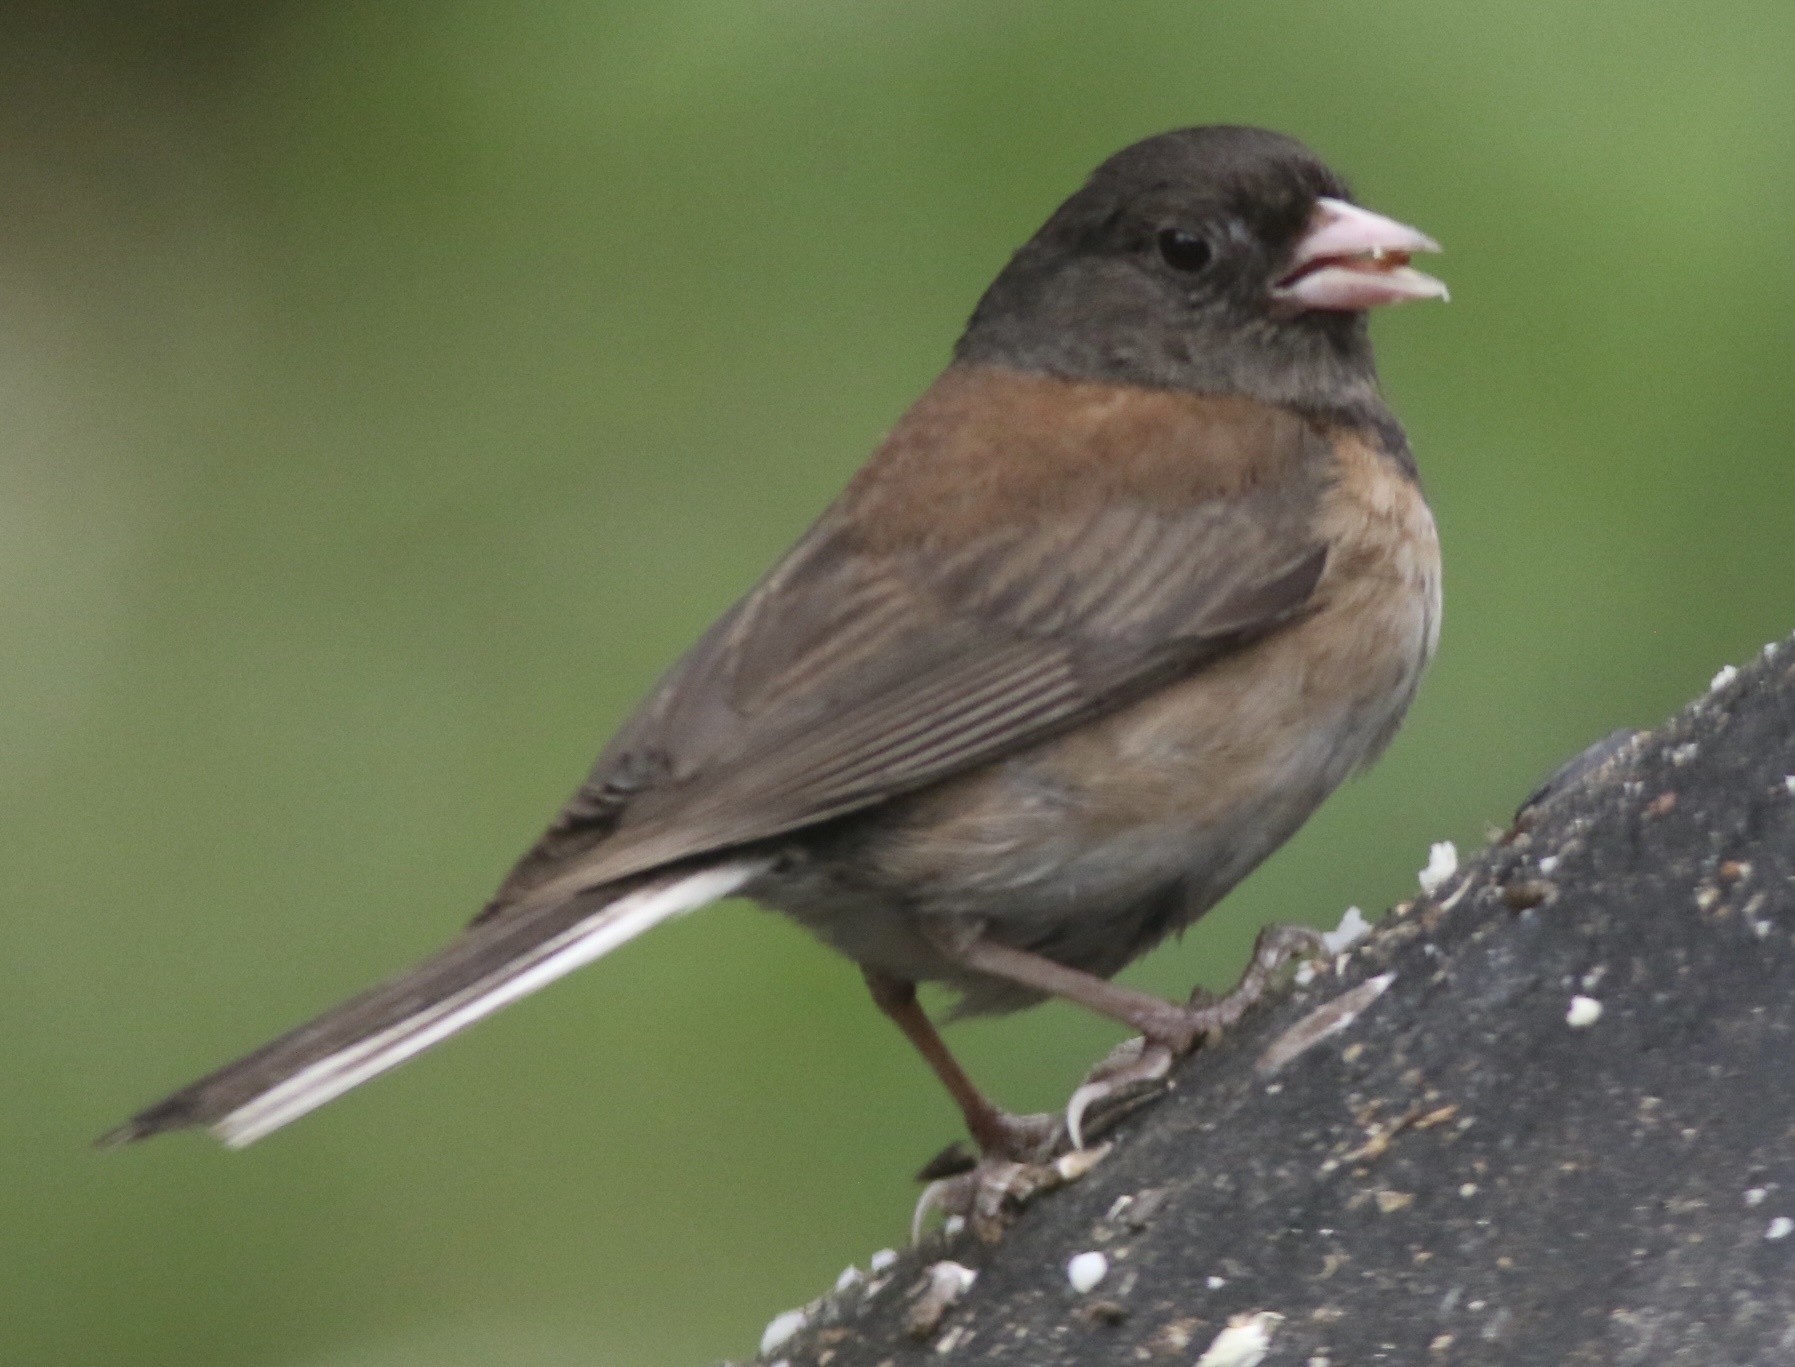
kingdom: Animalia
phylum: Chordata
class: Aves
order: Passeriformes
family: Passerellidae
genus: Junco
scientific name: Junco hyemalis
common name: Dark-eyed junco
